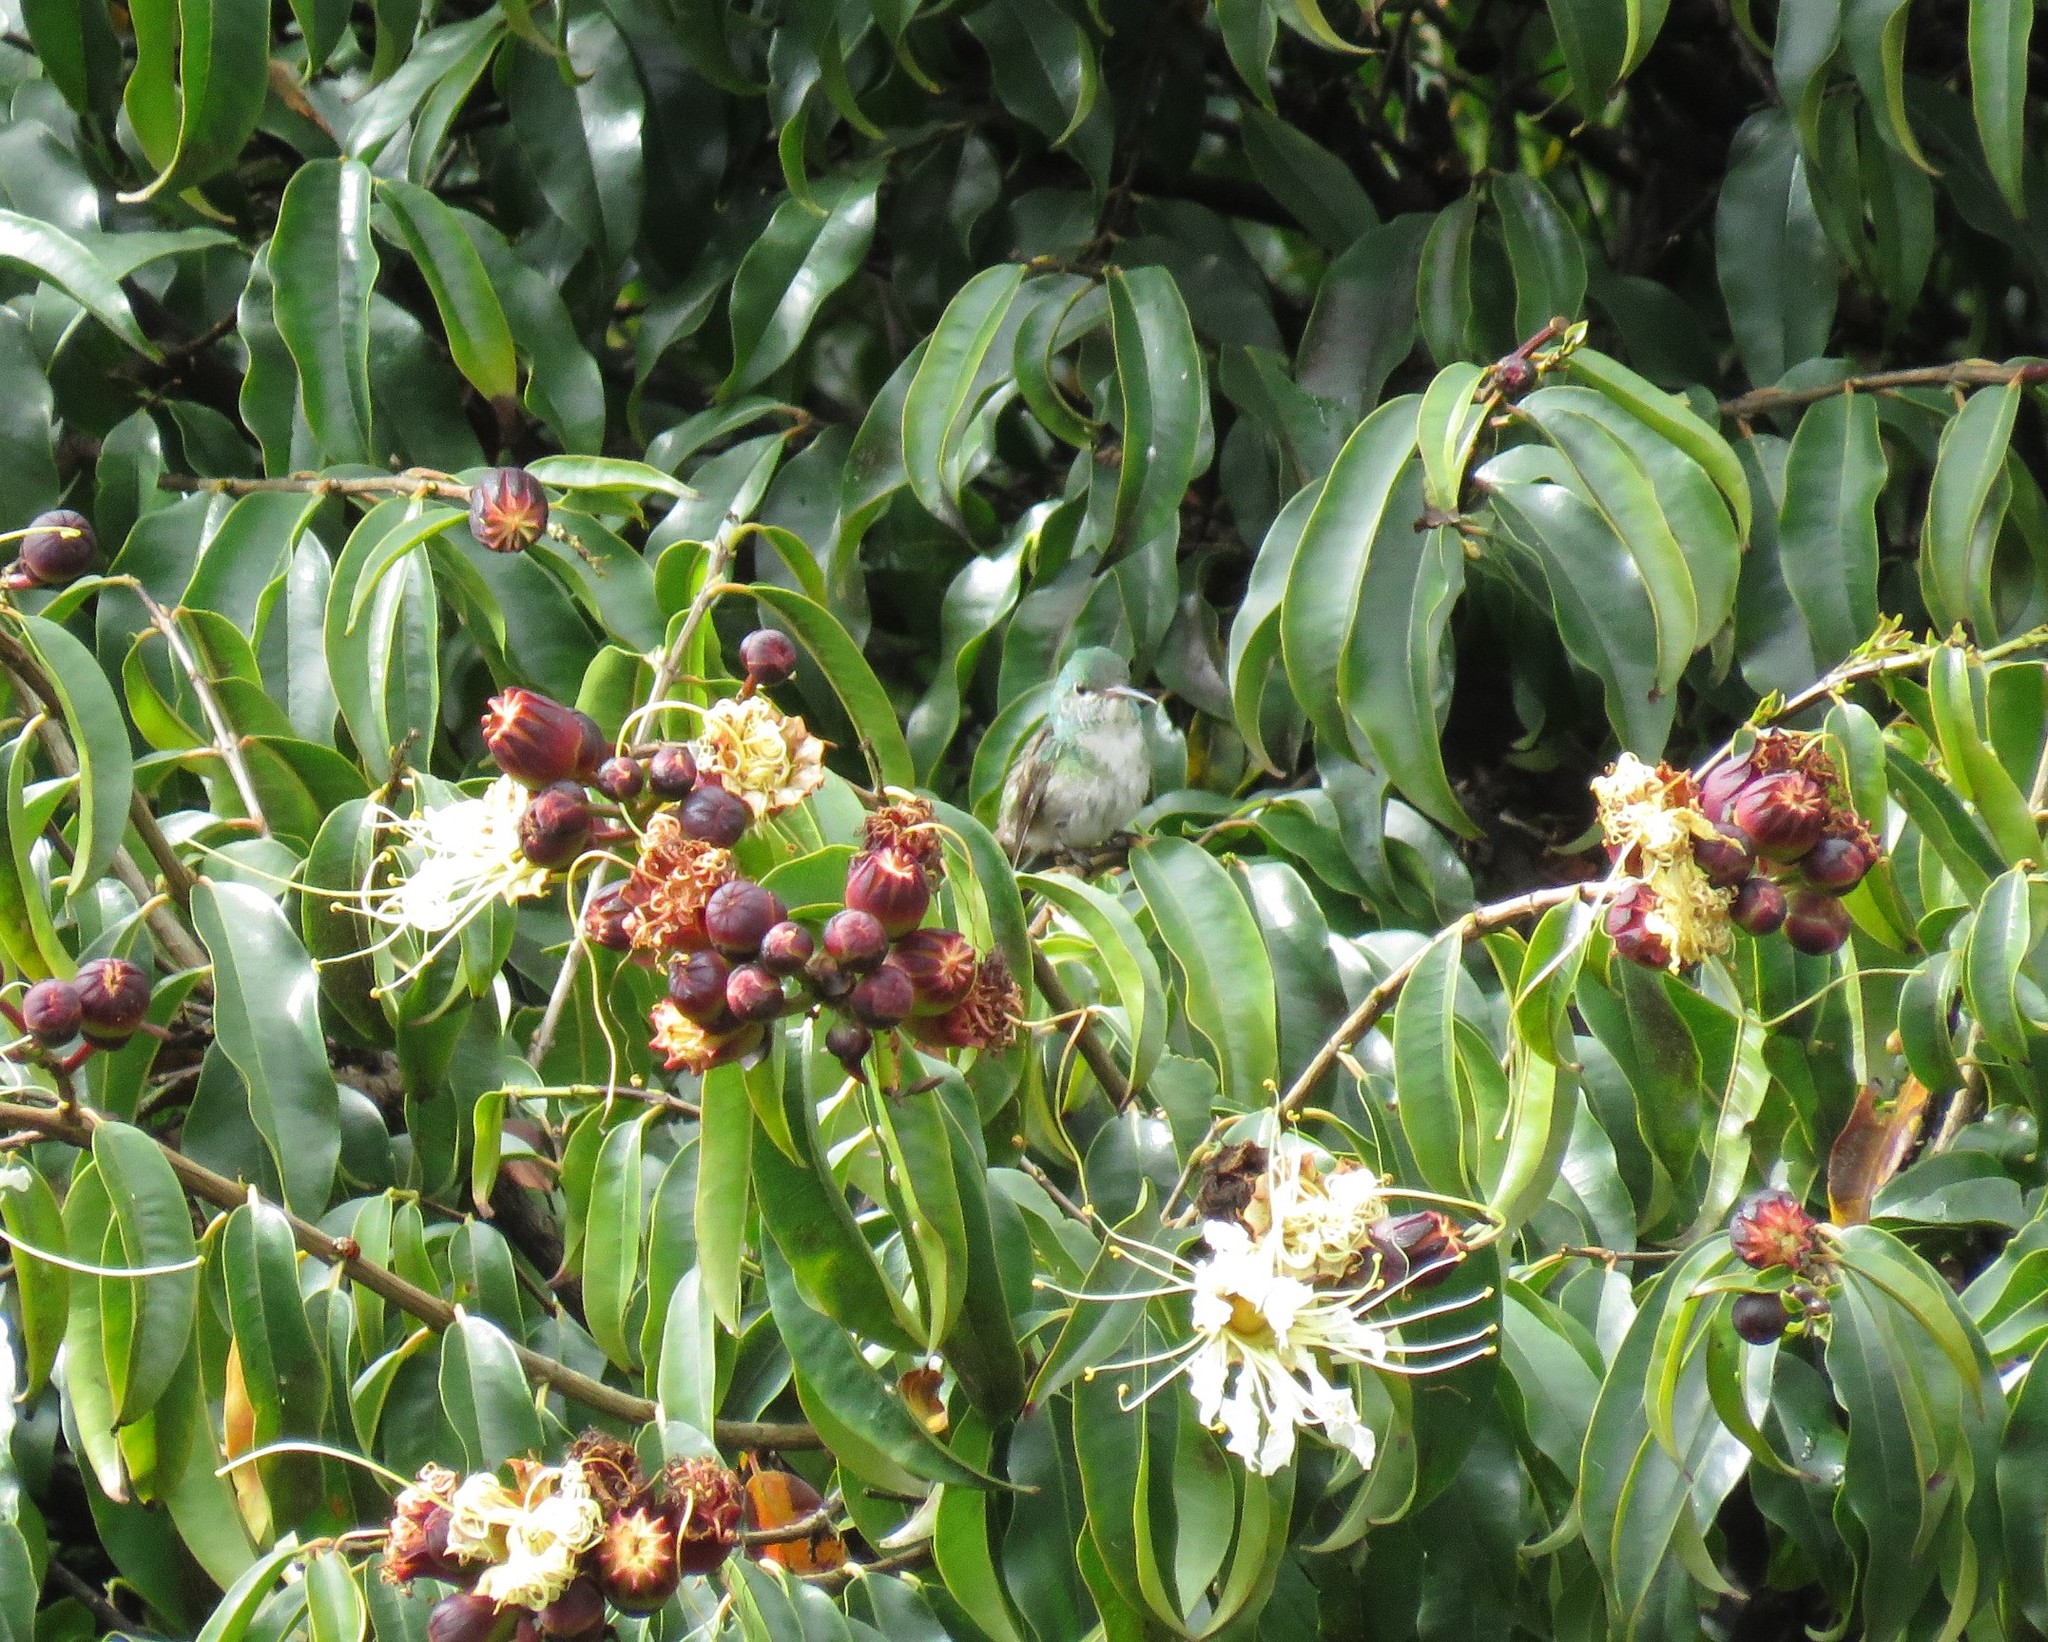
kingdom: Plantae
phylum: Tracheophyta
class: Magnoliopsida
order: Myrtales
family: Lythraceae
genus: Lafoensia
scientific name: Lafoensia acuminata
